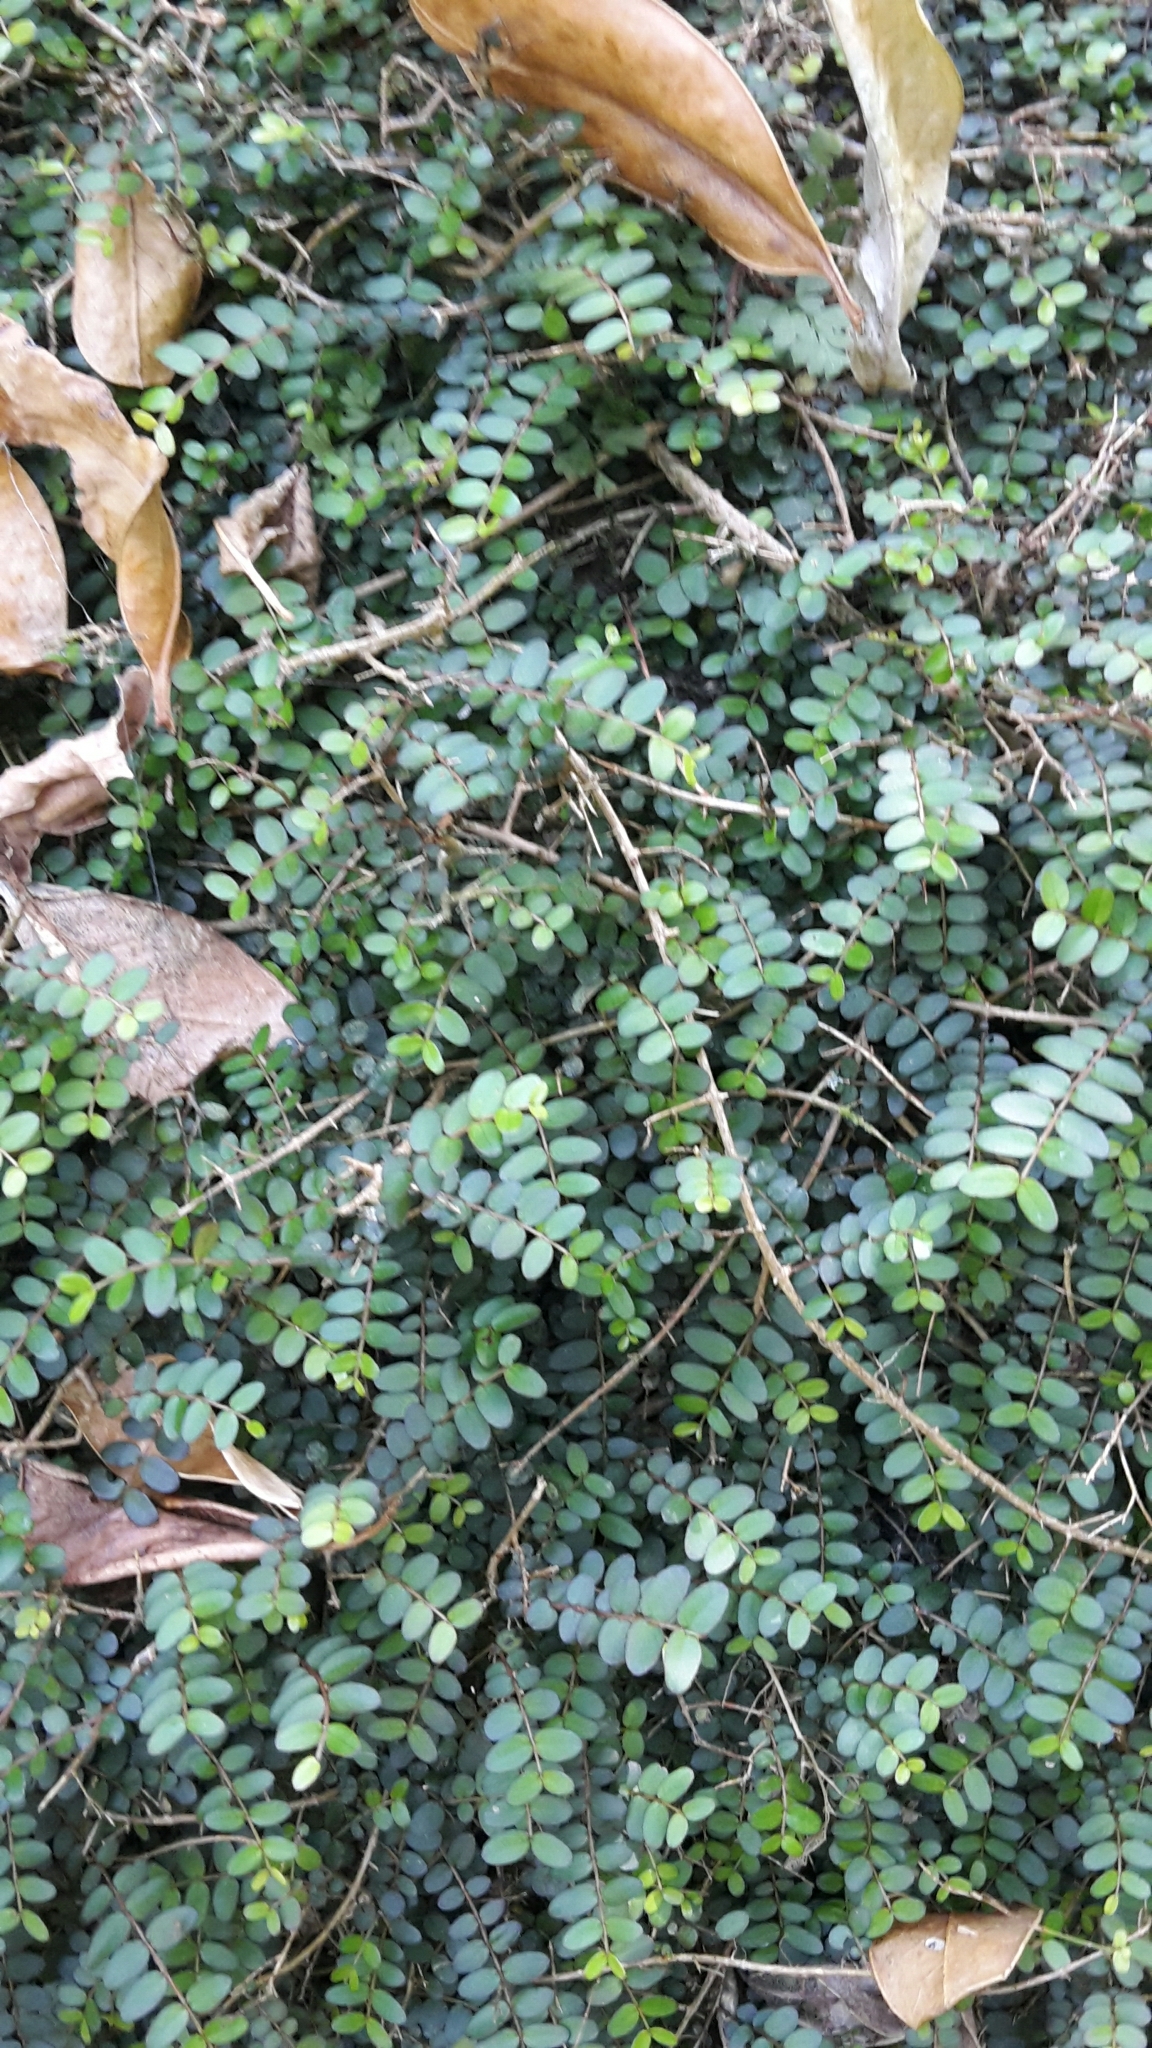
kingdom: Plantae
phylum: Tracheophyta
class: Magnoliopsida
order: Myrtales
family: Myrtaceae
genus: Metrosideros
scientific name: Metrosideros diffusa
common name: Small ratavine
